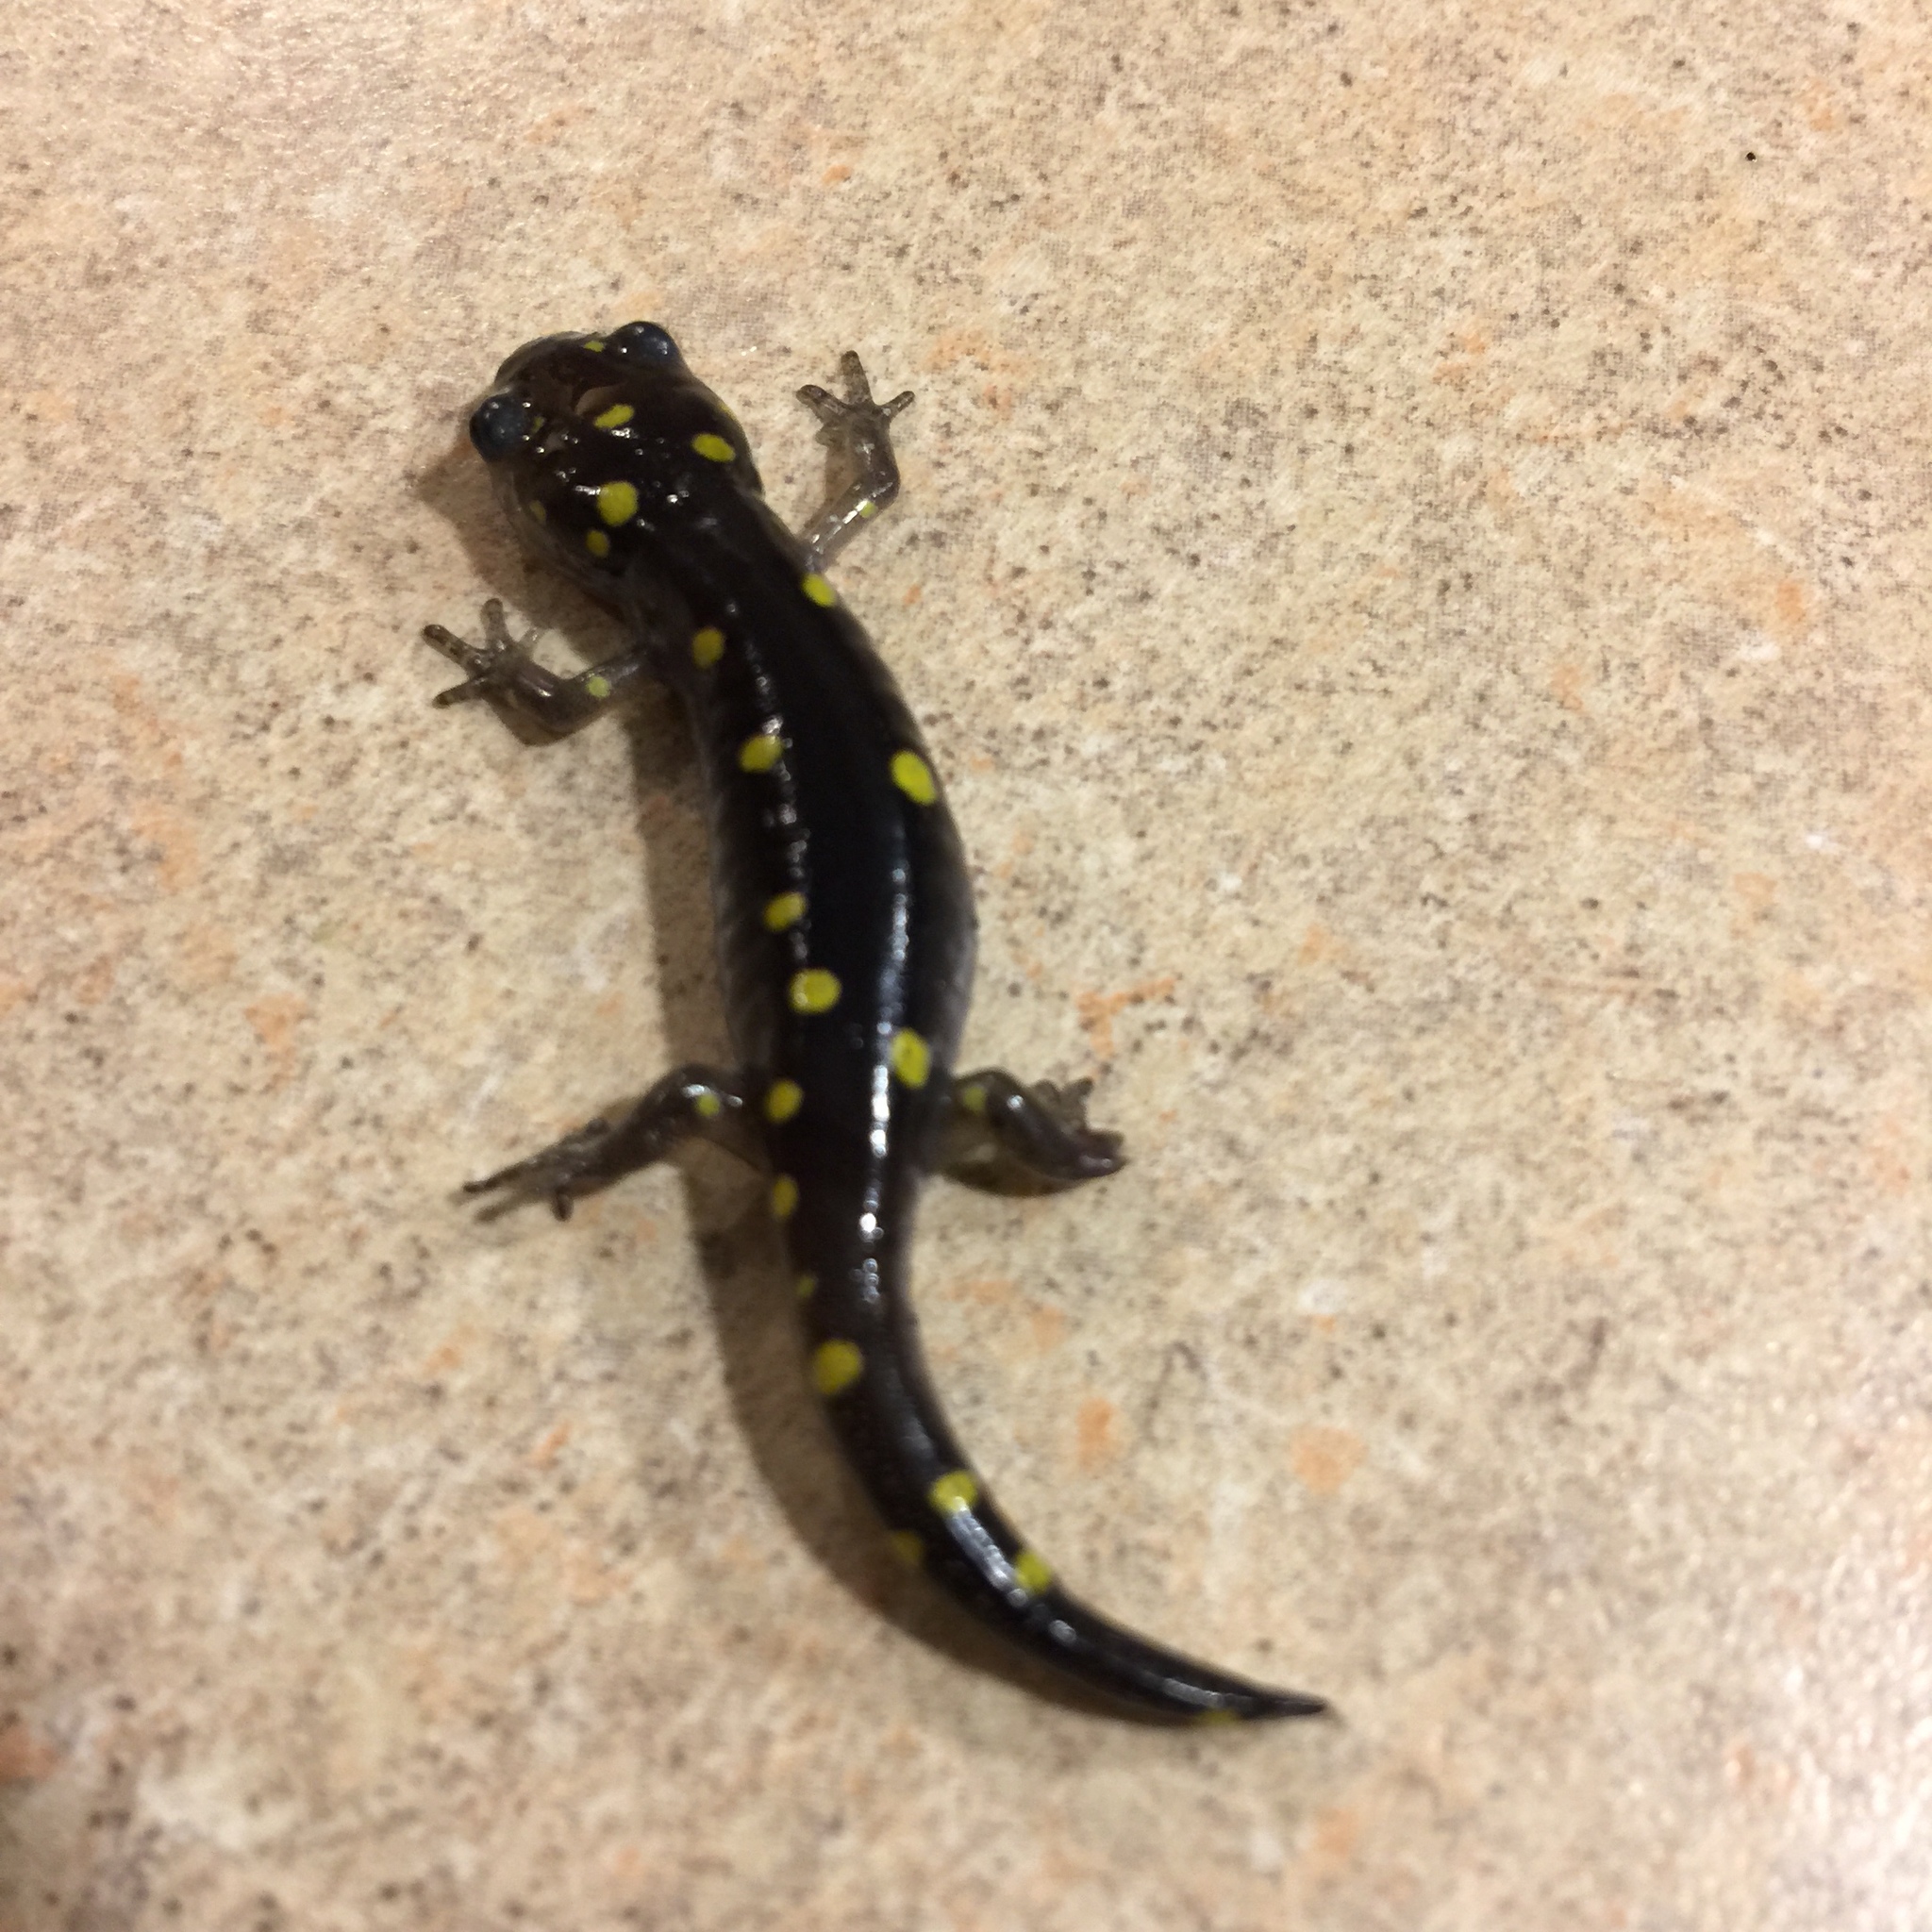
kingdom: Animalia
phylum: Chordata
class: Amphibia
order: Caudata
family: Ambystomatidae
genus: Ambystoma
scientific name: Ambystoma maculatum
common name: Spotted salamander
